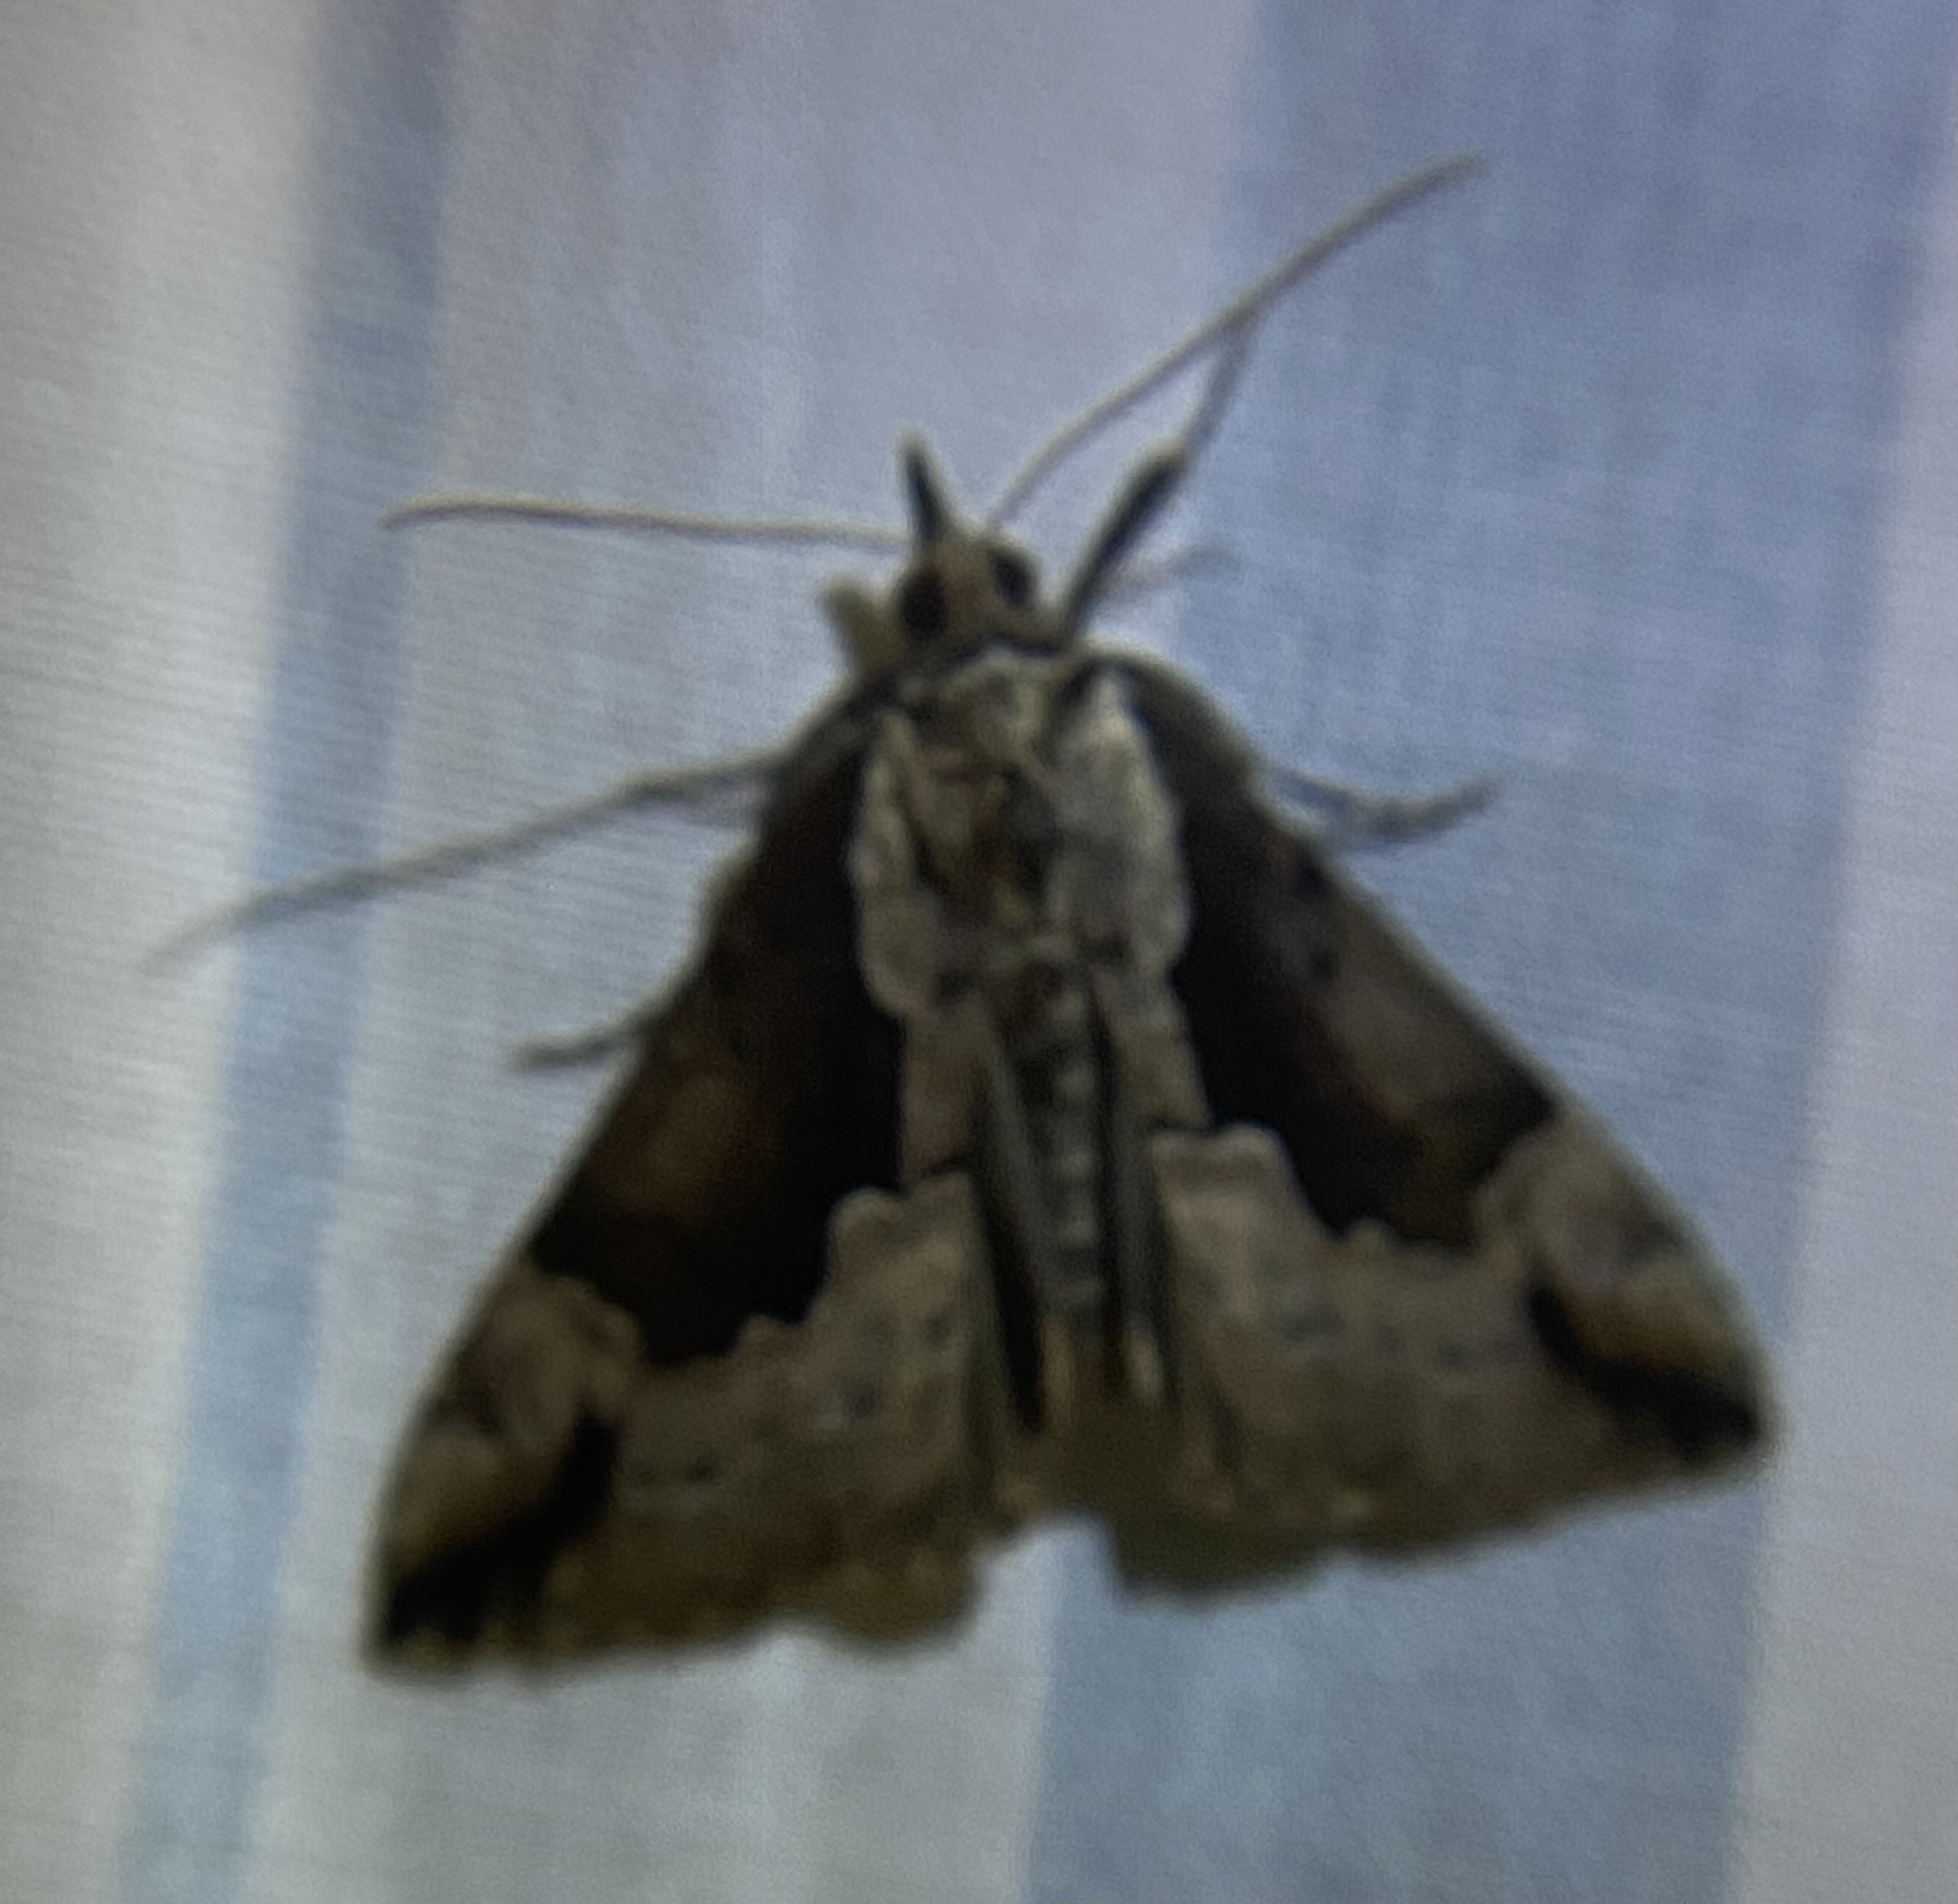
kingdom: Animalia
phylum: Arthropoda
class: Insecta
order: Lepidoptera
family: Erebidae
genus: Hypena
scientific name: Hypena baltimoralis
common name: Baltimore snout
